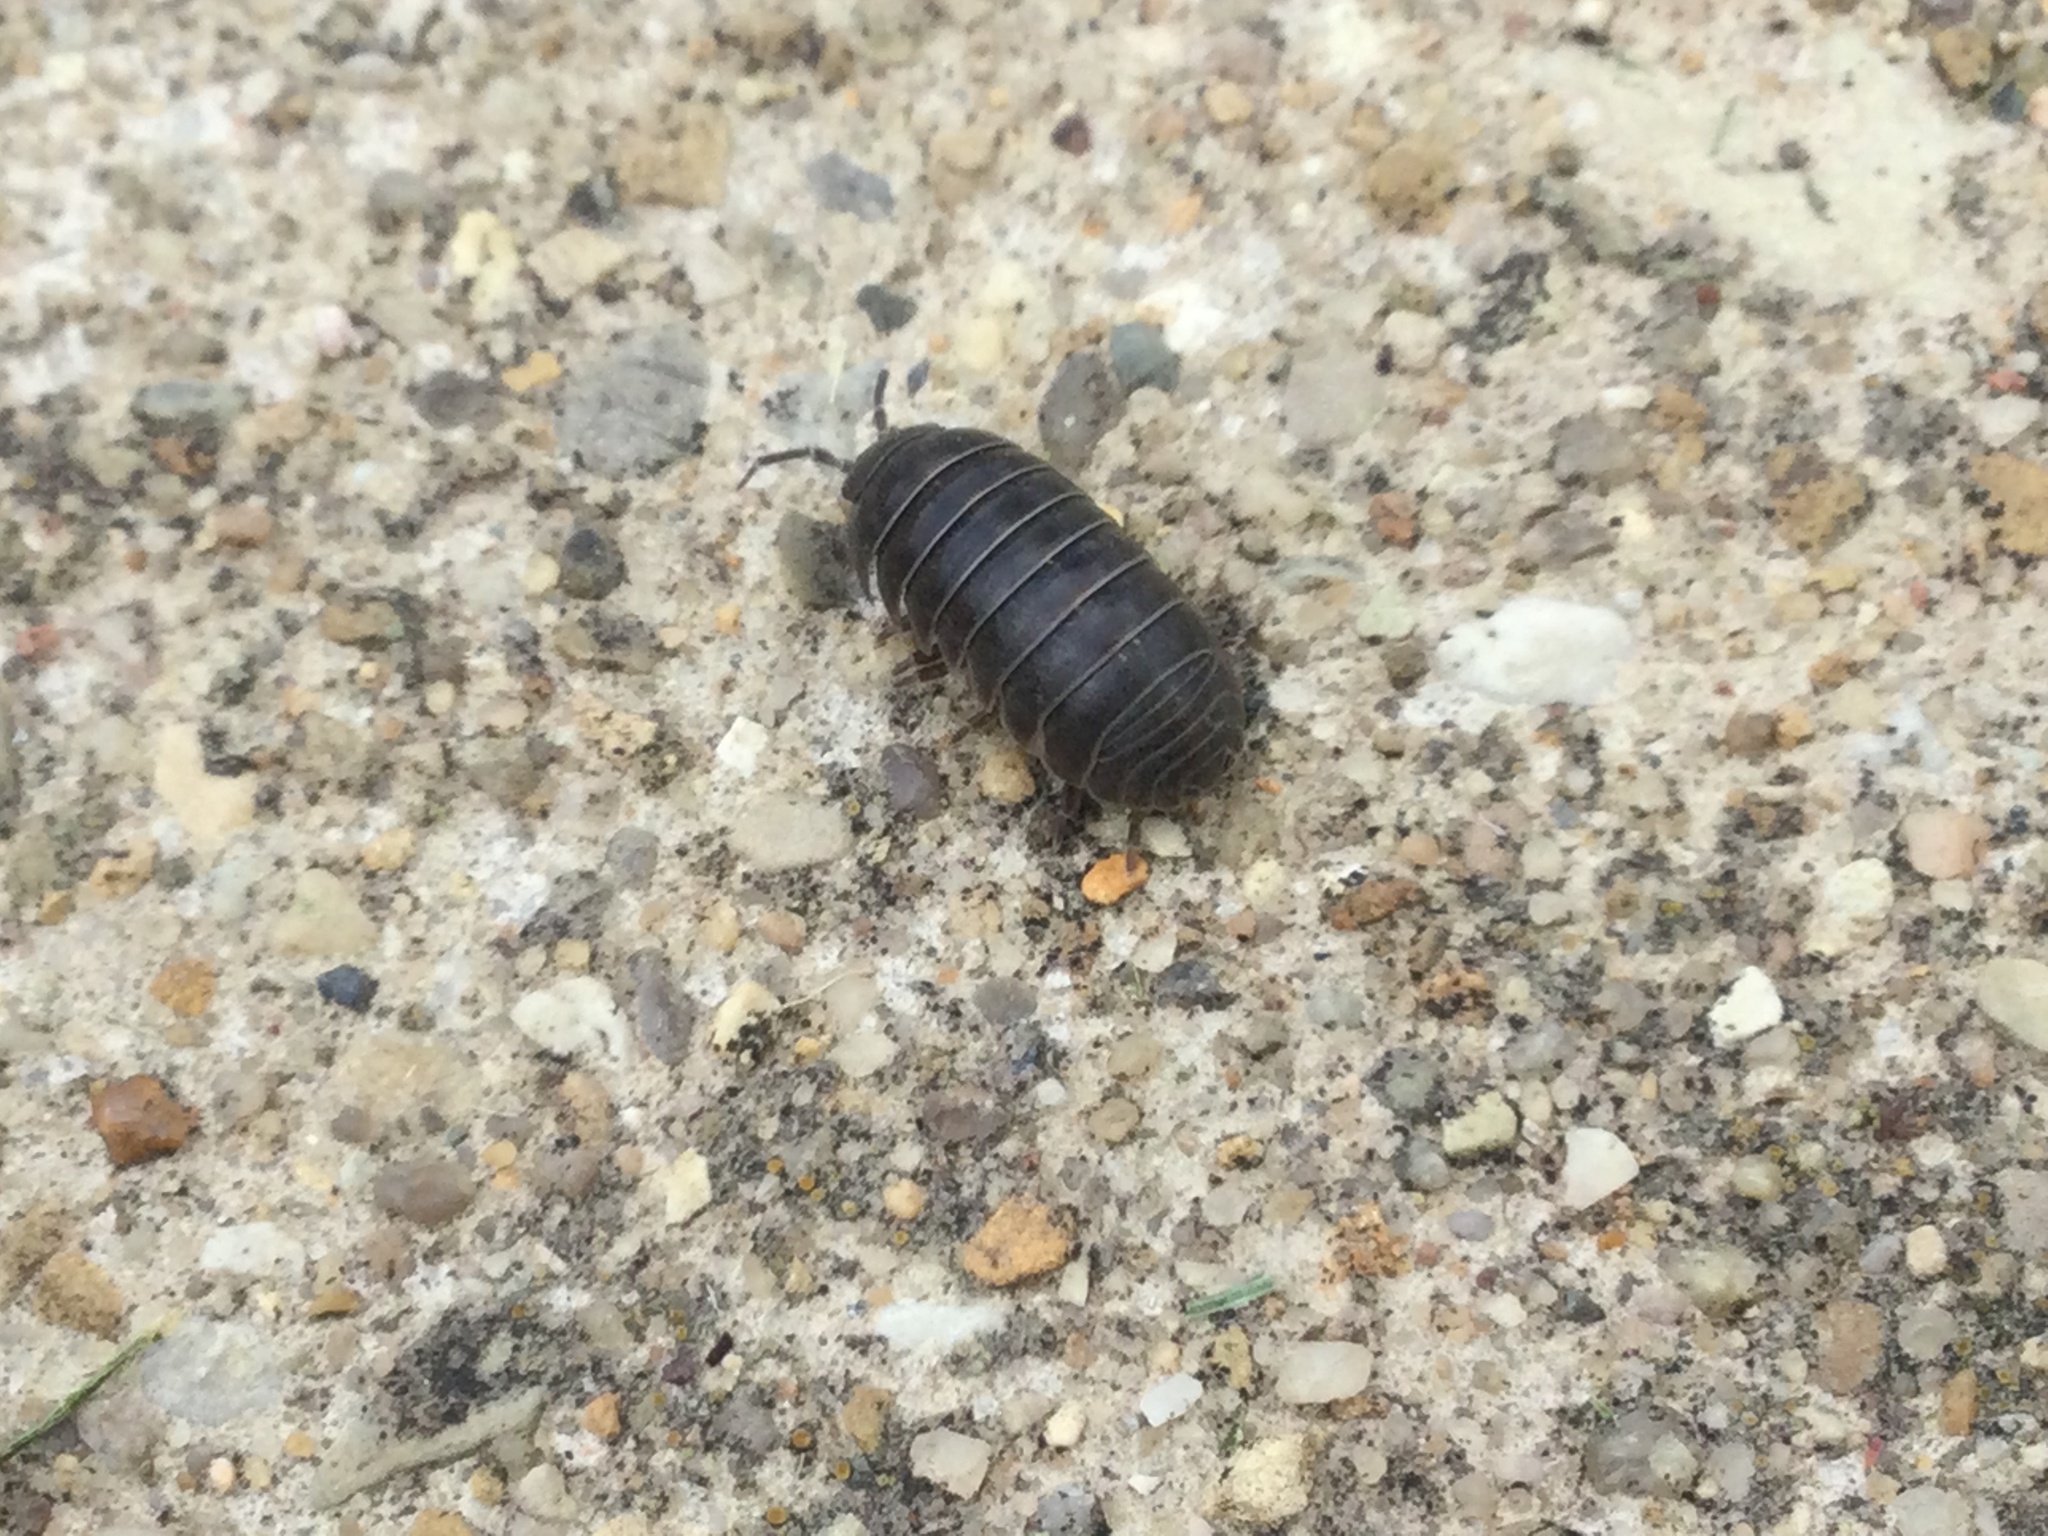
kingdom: Animalia
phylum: Arthropoda
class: Malacostraca
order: Isopoda
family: Armadillidiidae
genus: Armadillidium
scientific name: Armadillidium vulgare
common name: Common pill woodlouse
